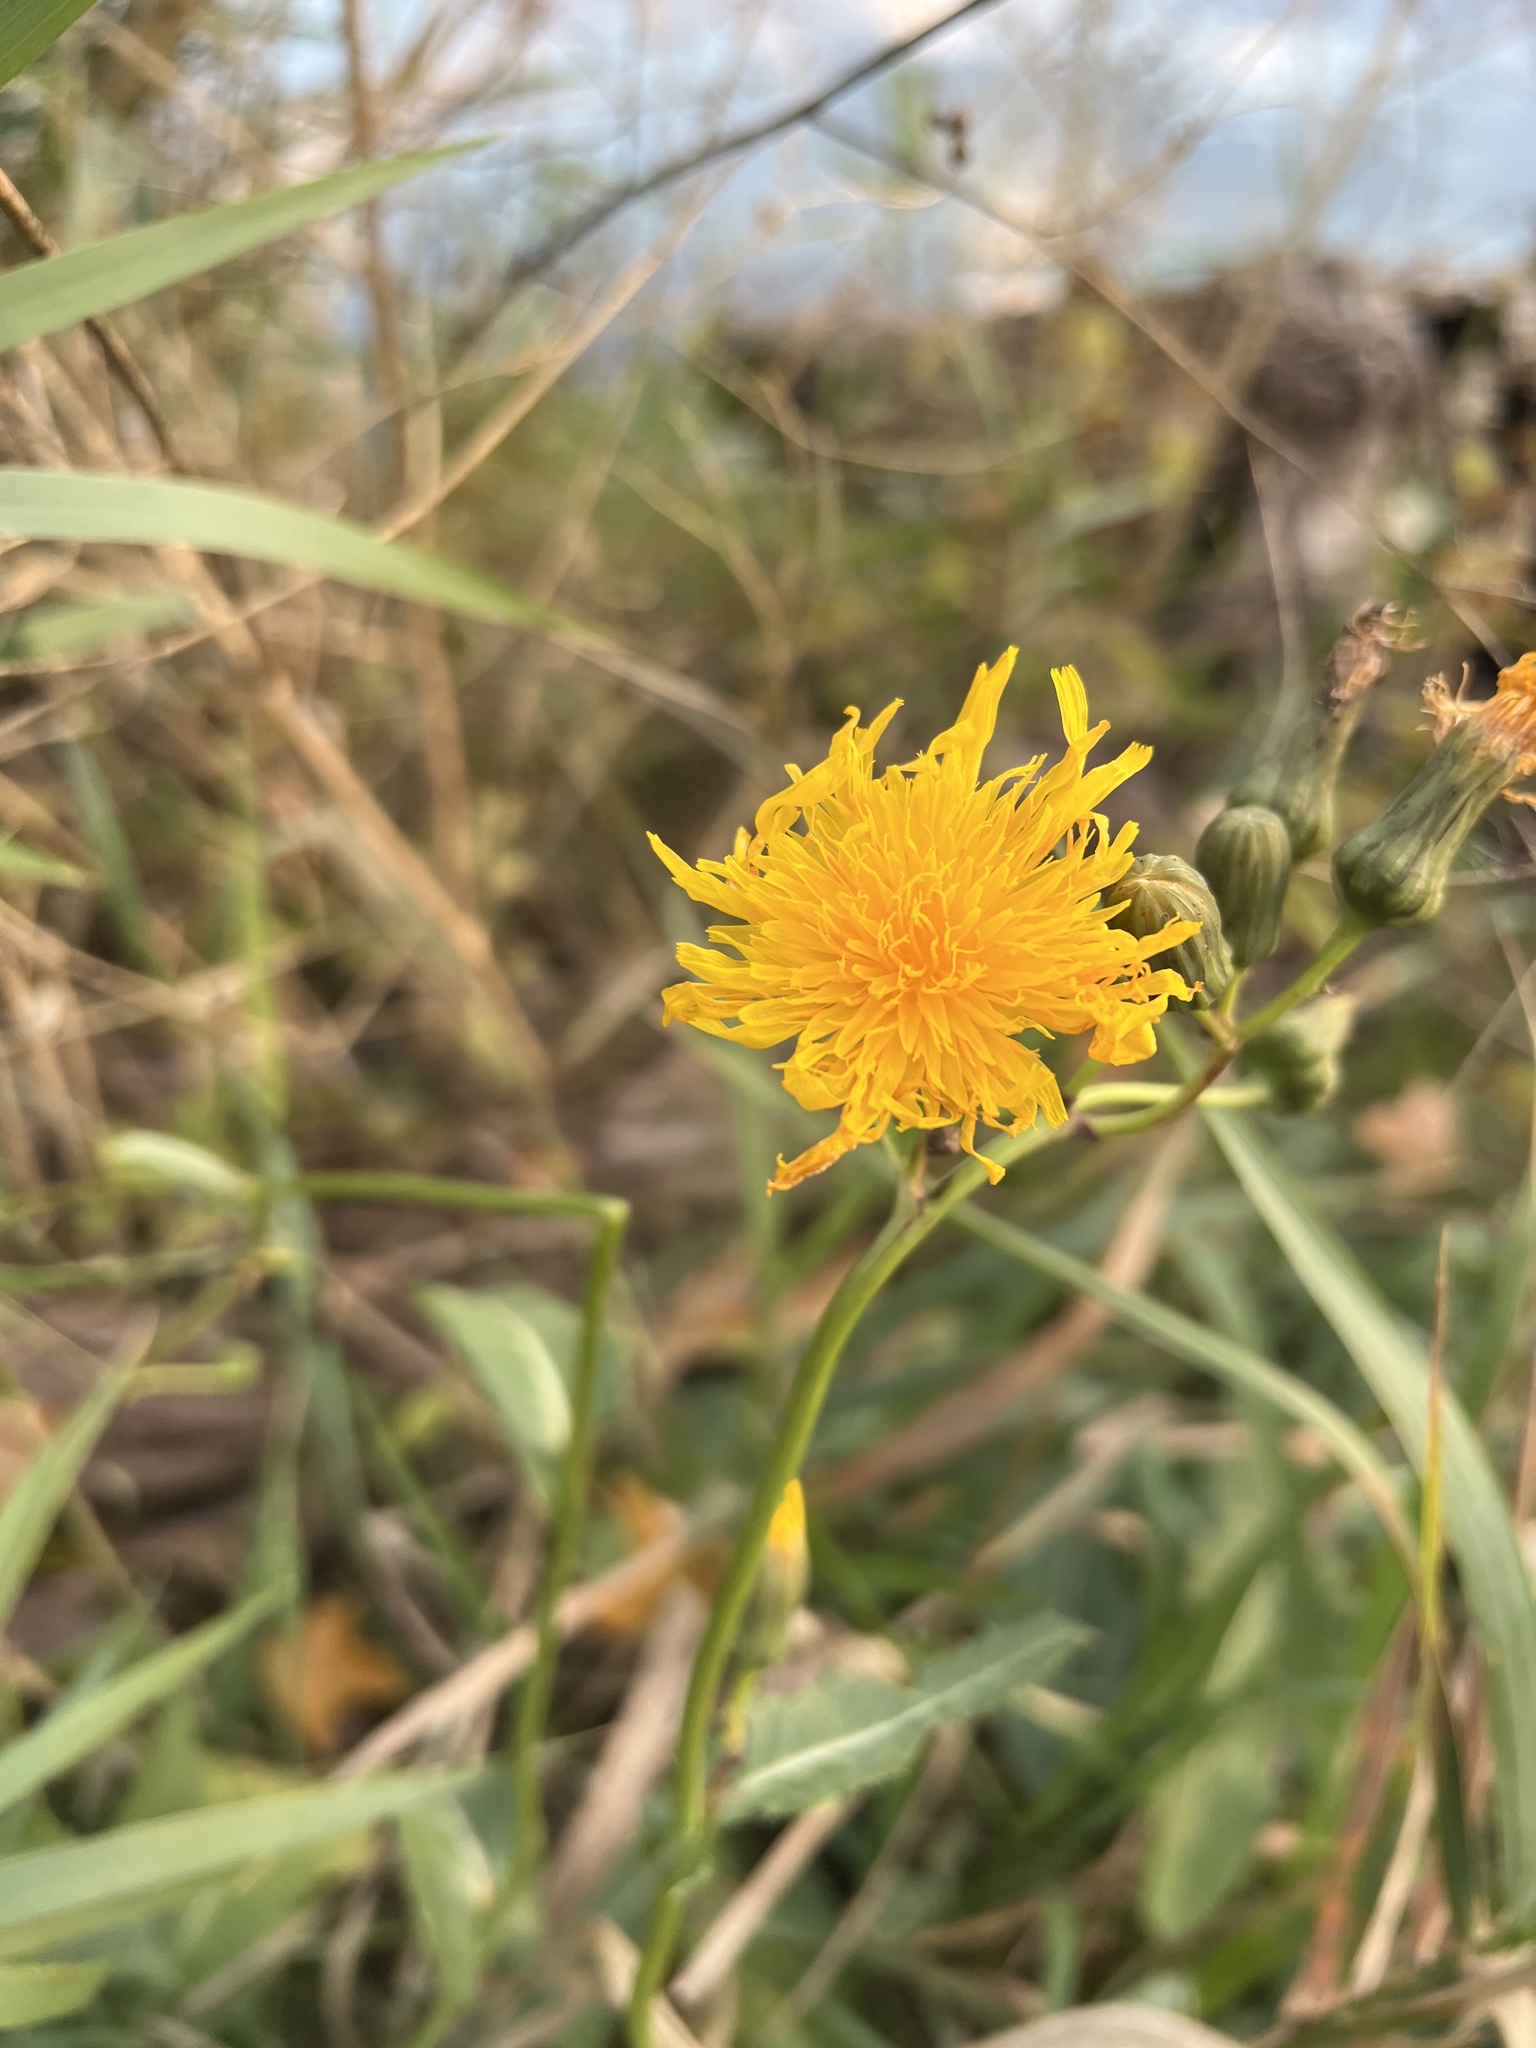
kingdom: Plantae
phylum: Tracheophyta
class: Magnoliopsida
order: Asterales
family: Asteraceae
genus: Sonchus
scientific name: Sonchus arvensis
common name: Perennial sow-thistle
